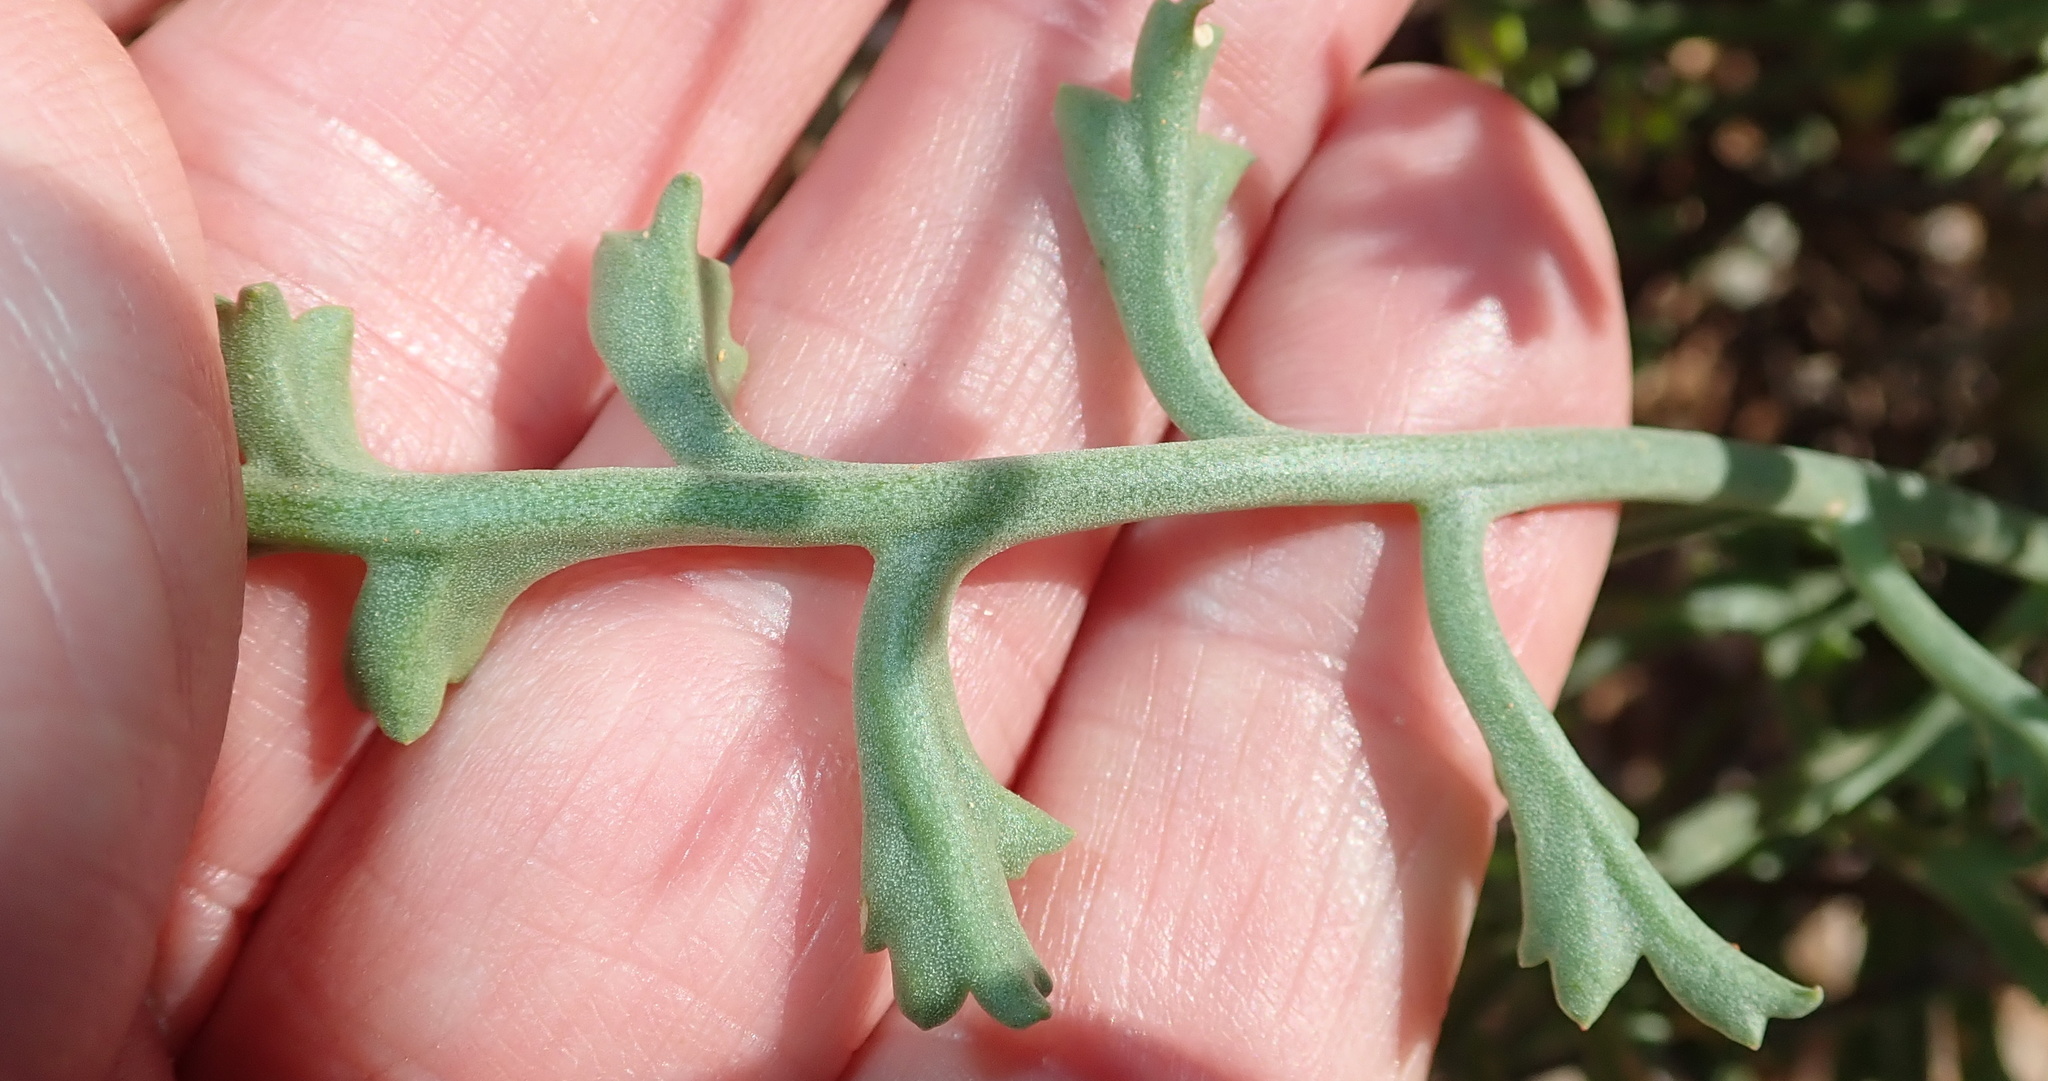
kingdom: Plantae
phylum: Tracheophyta
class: Magnoliopsida
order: Geraniales
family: Geraniaceae
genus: Pelargonium
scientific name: Pelargonium crithmifolium
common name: Samphire-leaf pelargonium
